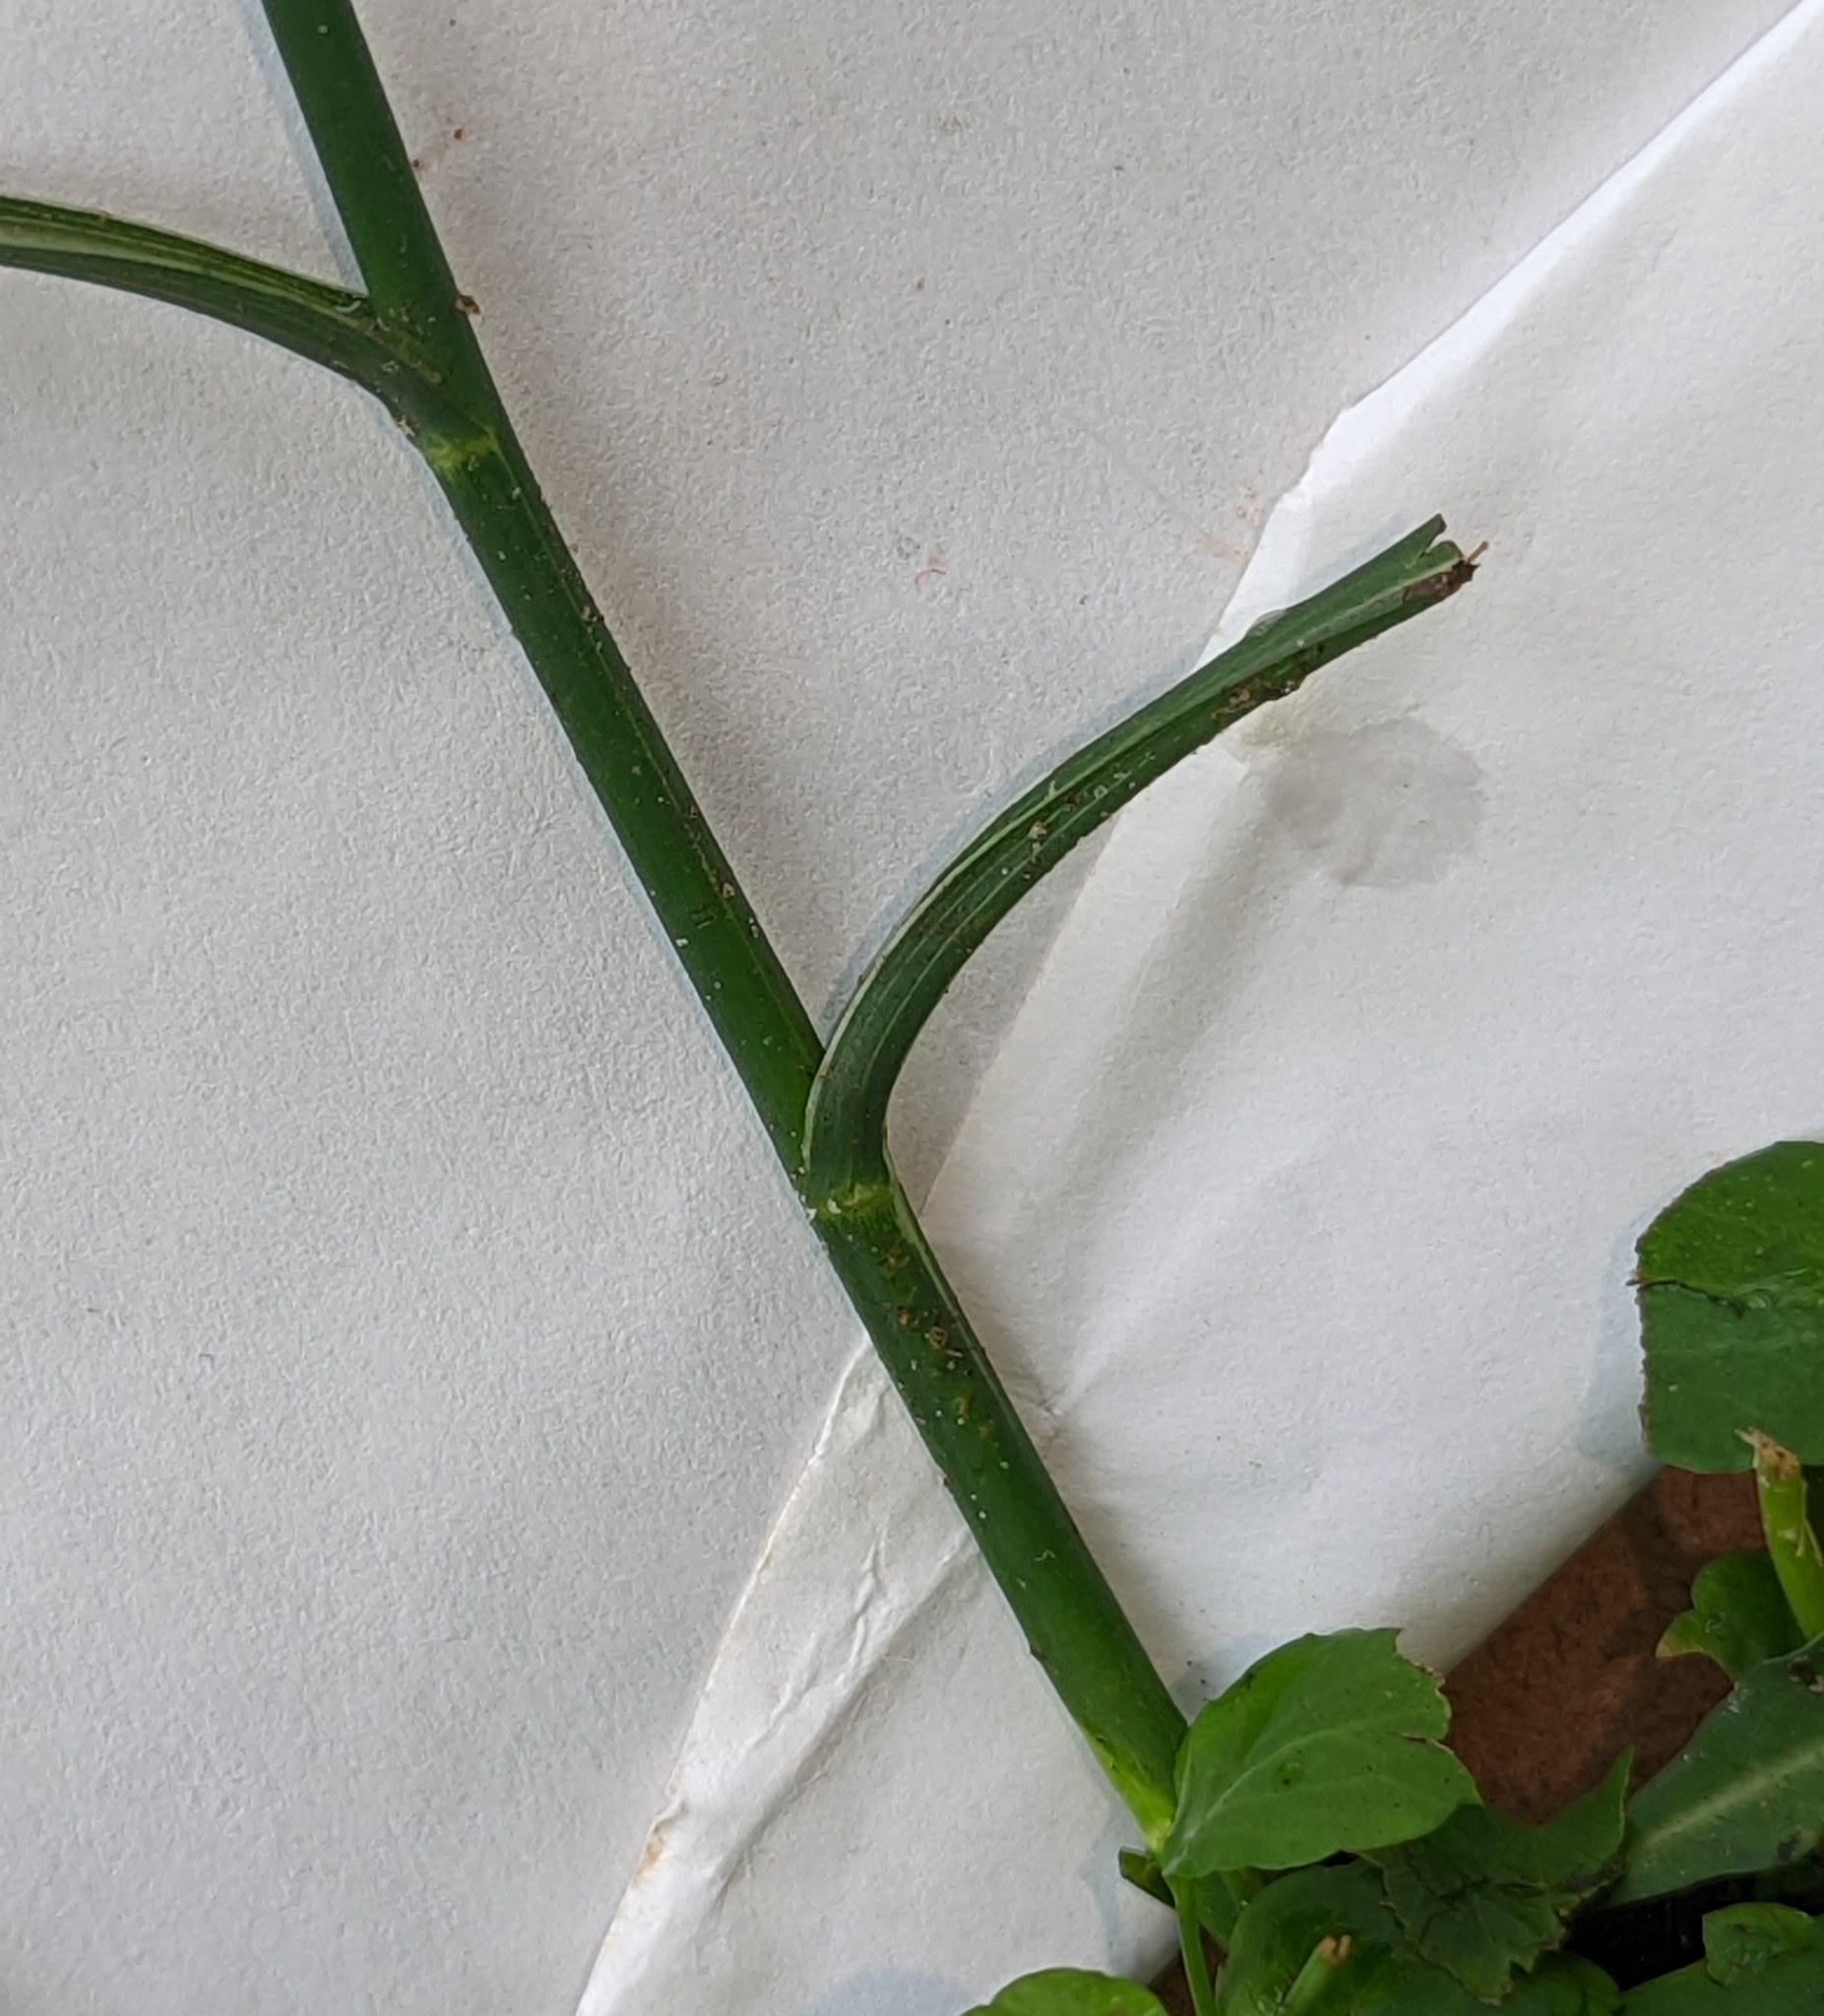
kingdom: Plantae
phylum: Tracheophyta
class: Magnoliopsida
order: Asterales
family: Asteraceae
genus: Symphyotrichum
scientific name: Symphyotrichum subulatum
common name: Annual saltmarsh aster
